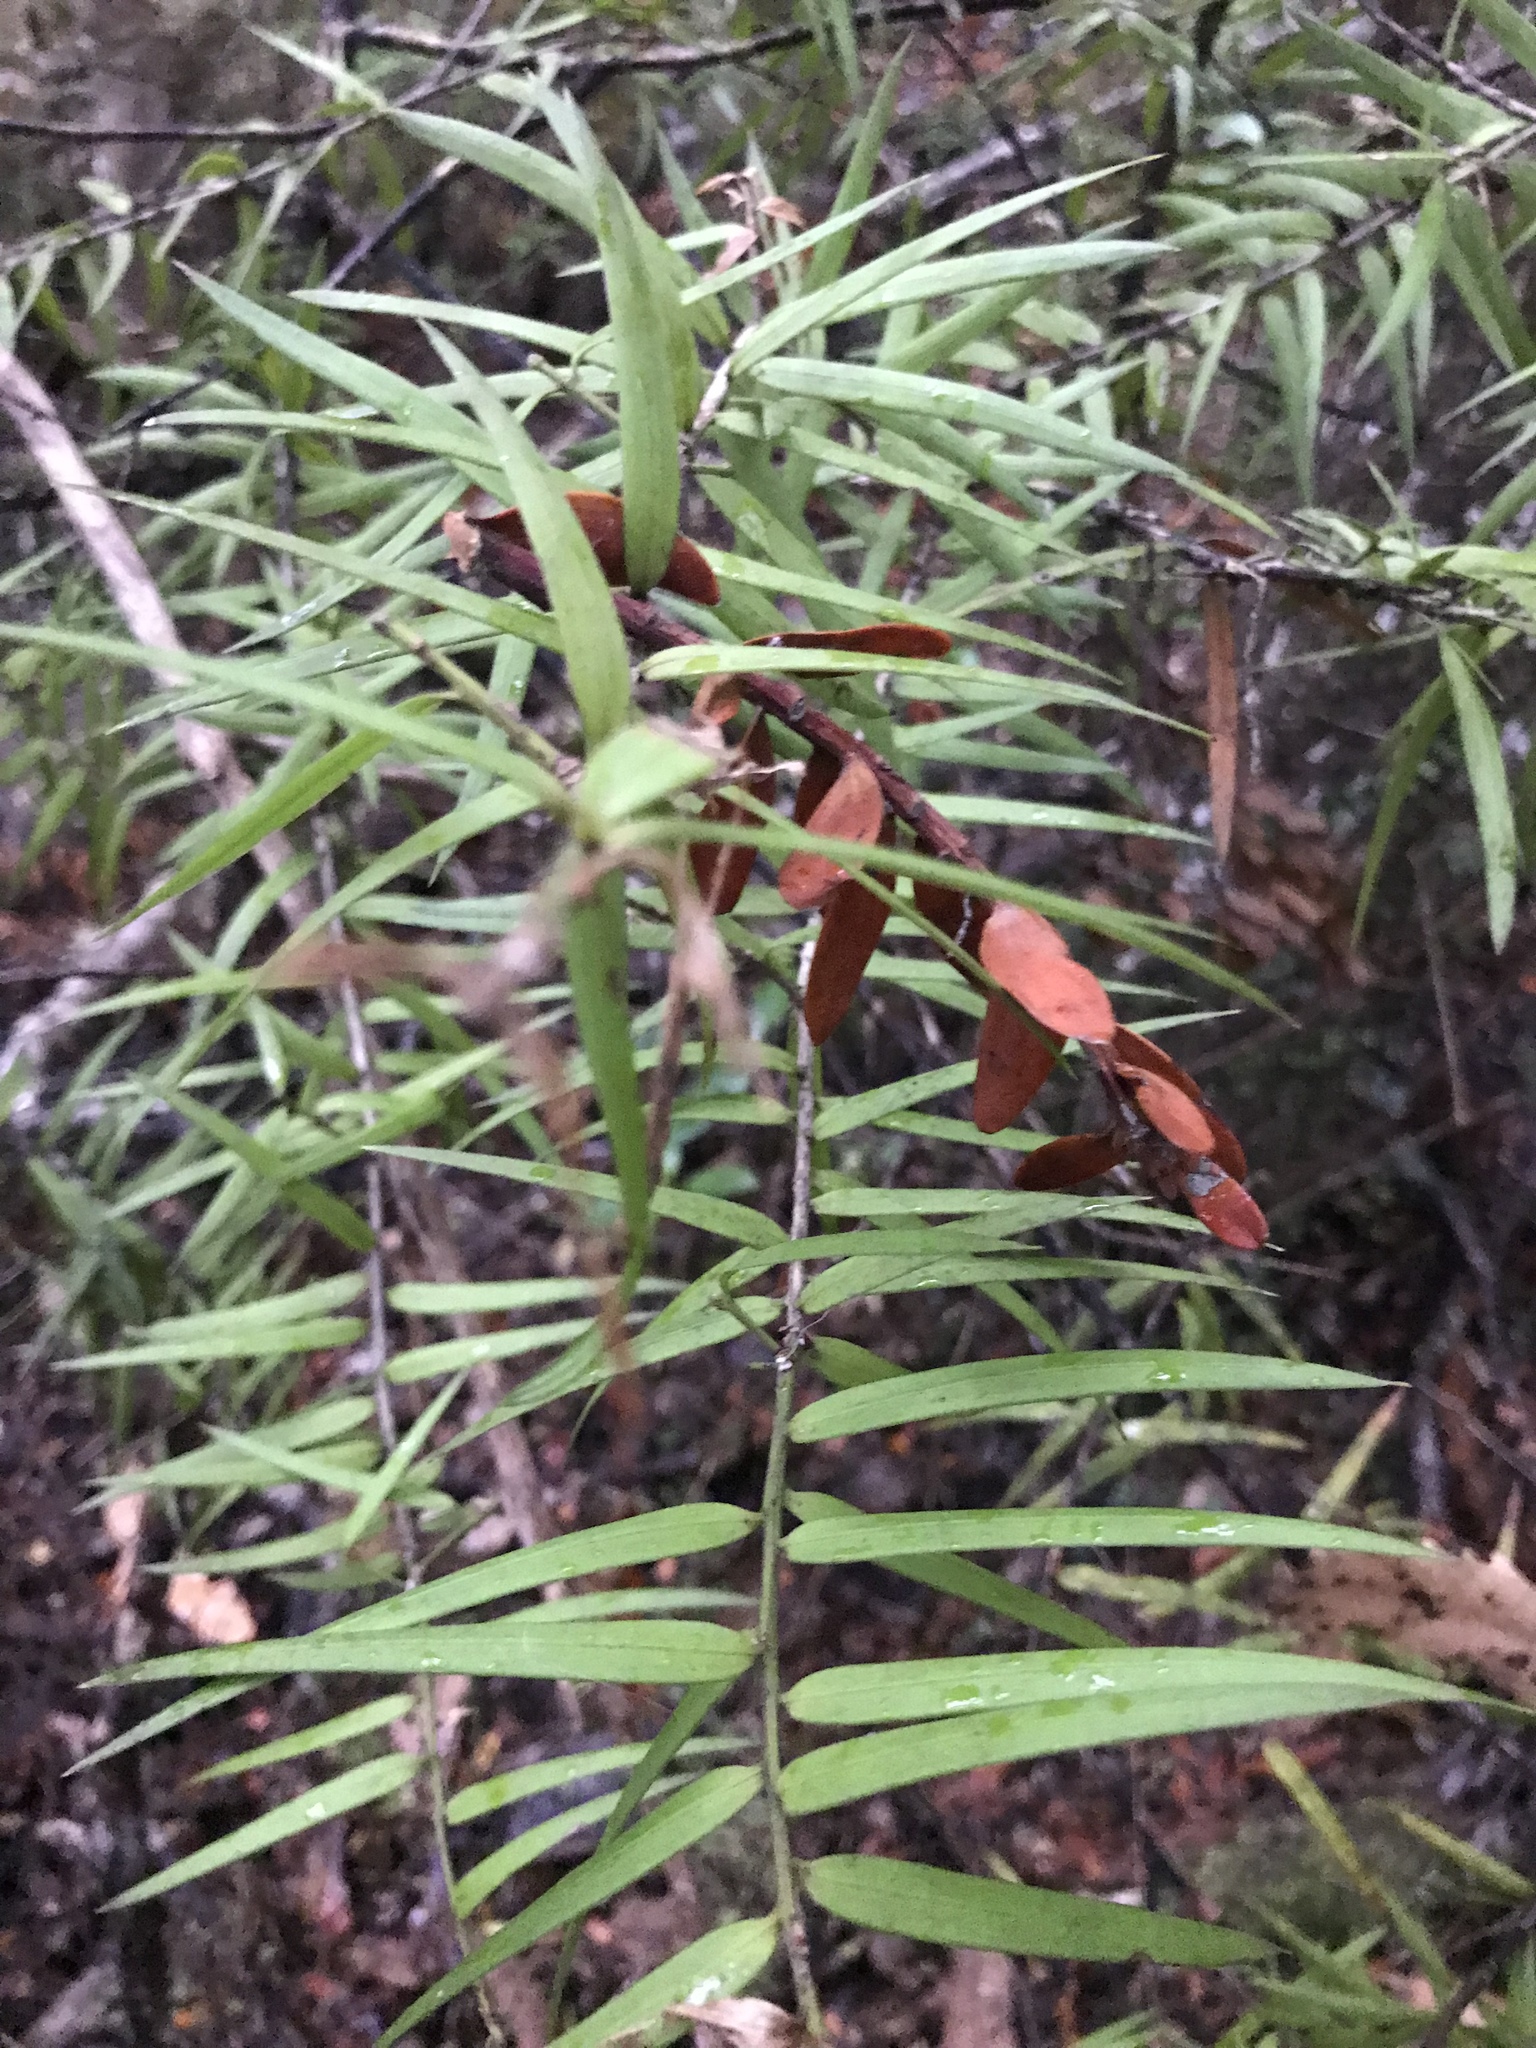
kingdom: Plantae
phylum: Tracheophyta
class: Pinopsida
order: Pinales
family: Podocarpaceae
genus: Podocarpus
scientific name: Podocarpus laetus
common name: Hall's totara
